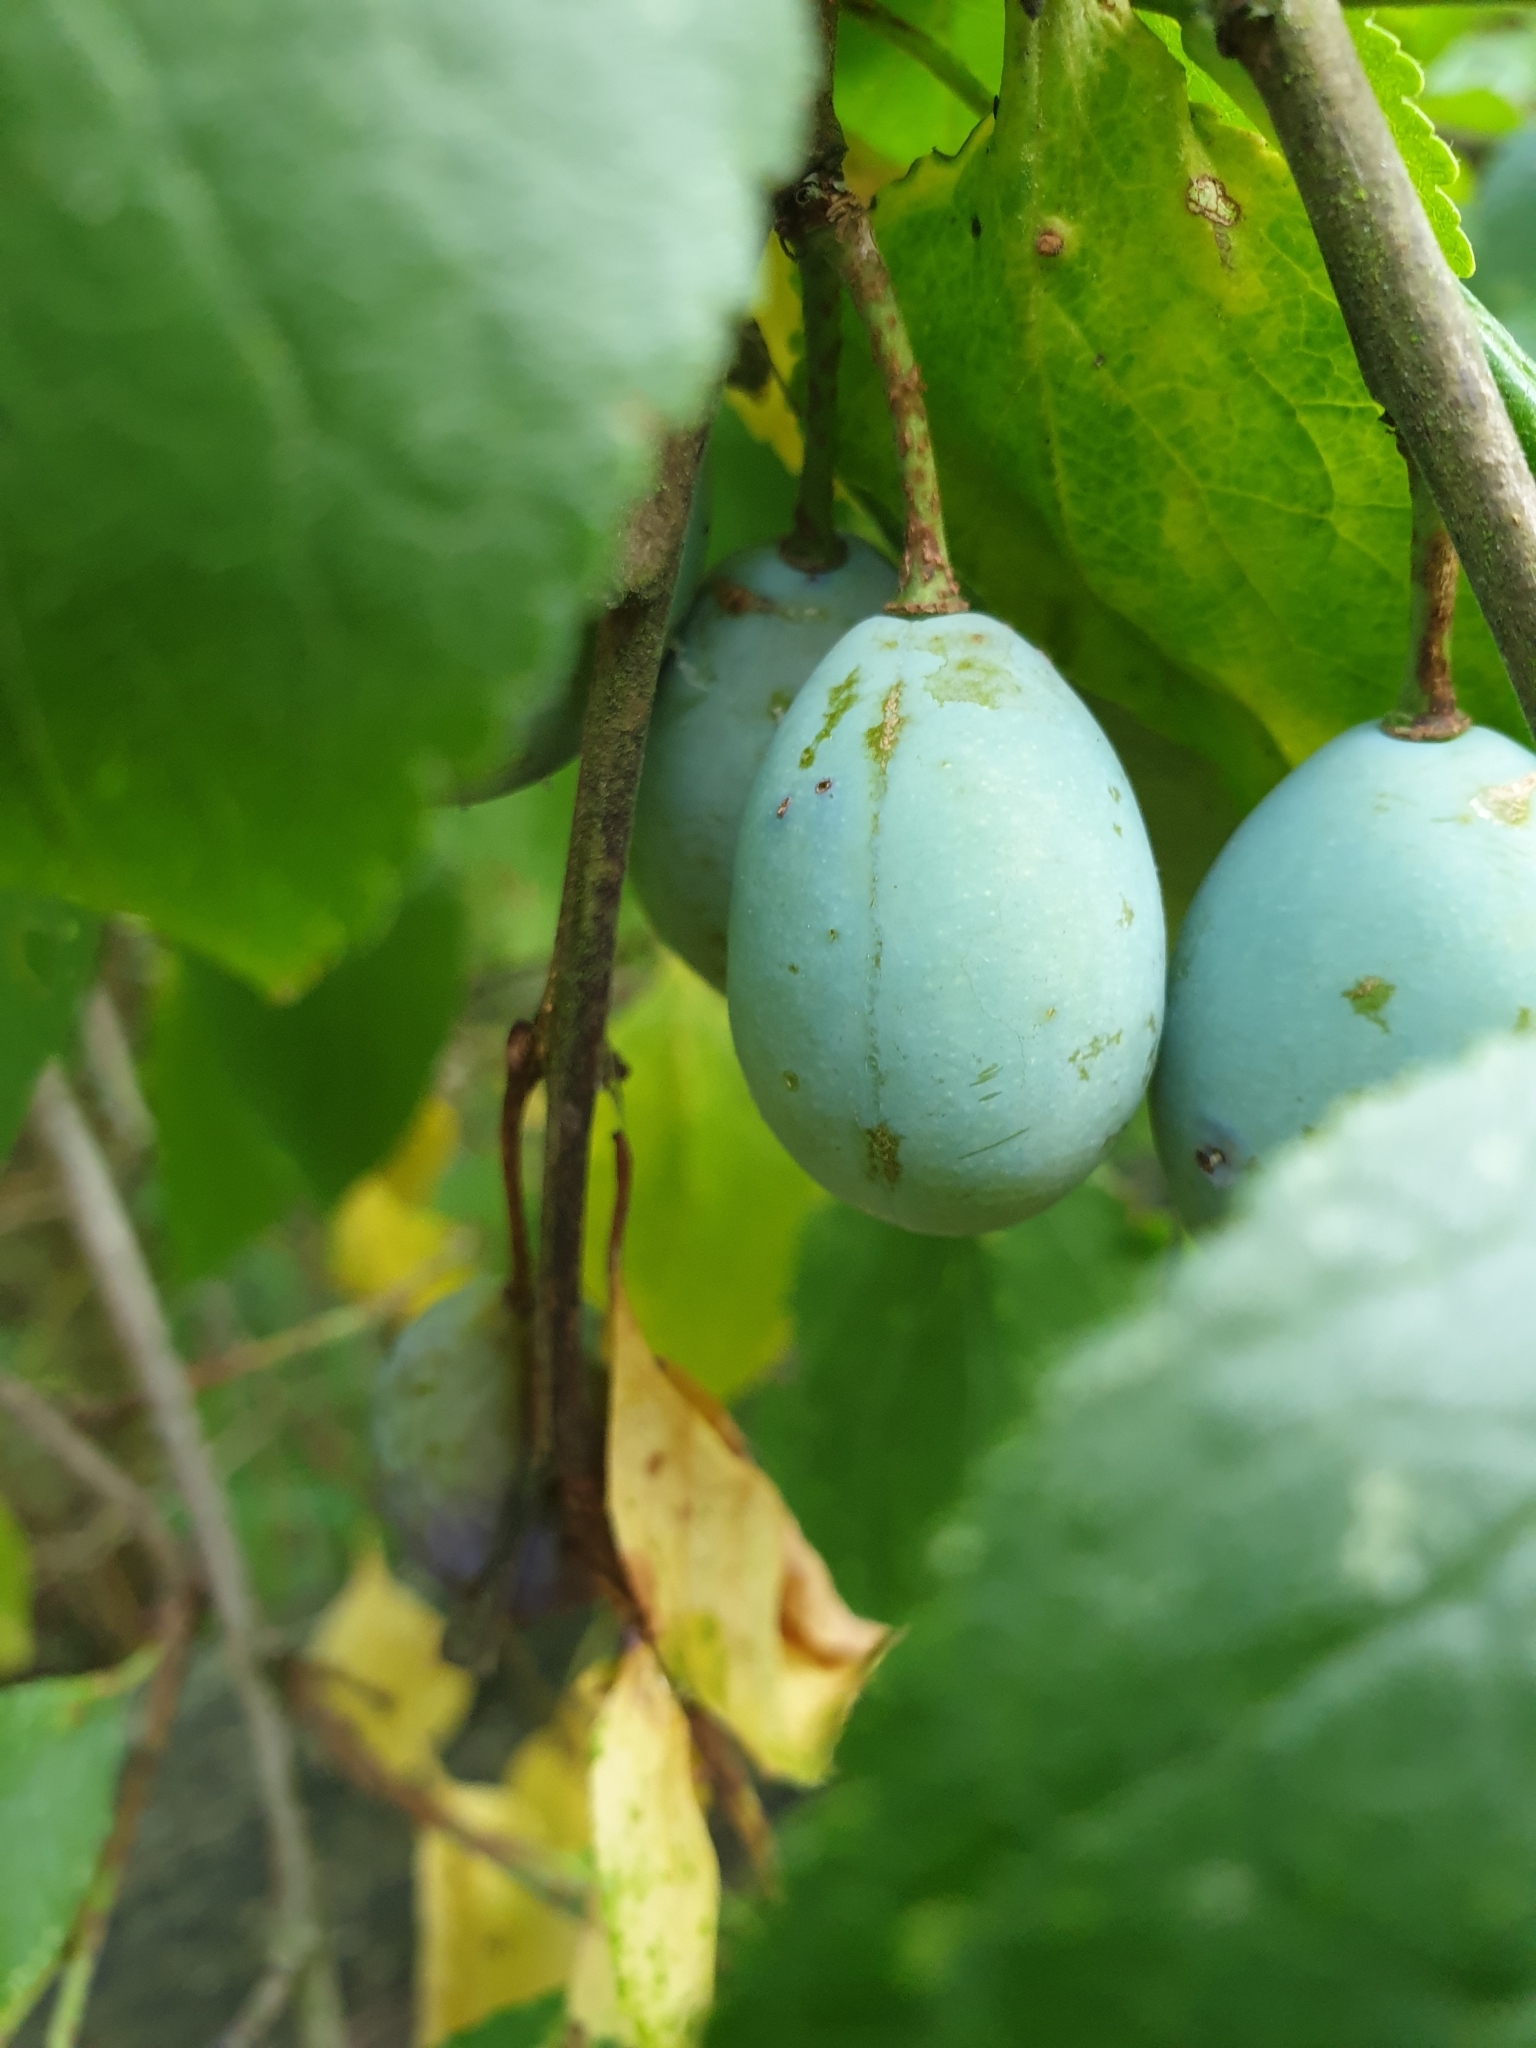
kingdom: Plantae
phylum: Tracheophyta
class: Magnoliopsida
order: Rosales
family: Rosaceae
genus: Prunus
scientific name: Prunus domestica
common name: Wild plum
